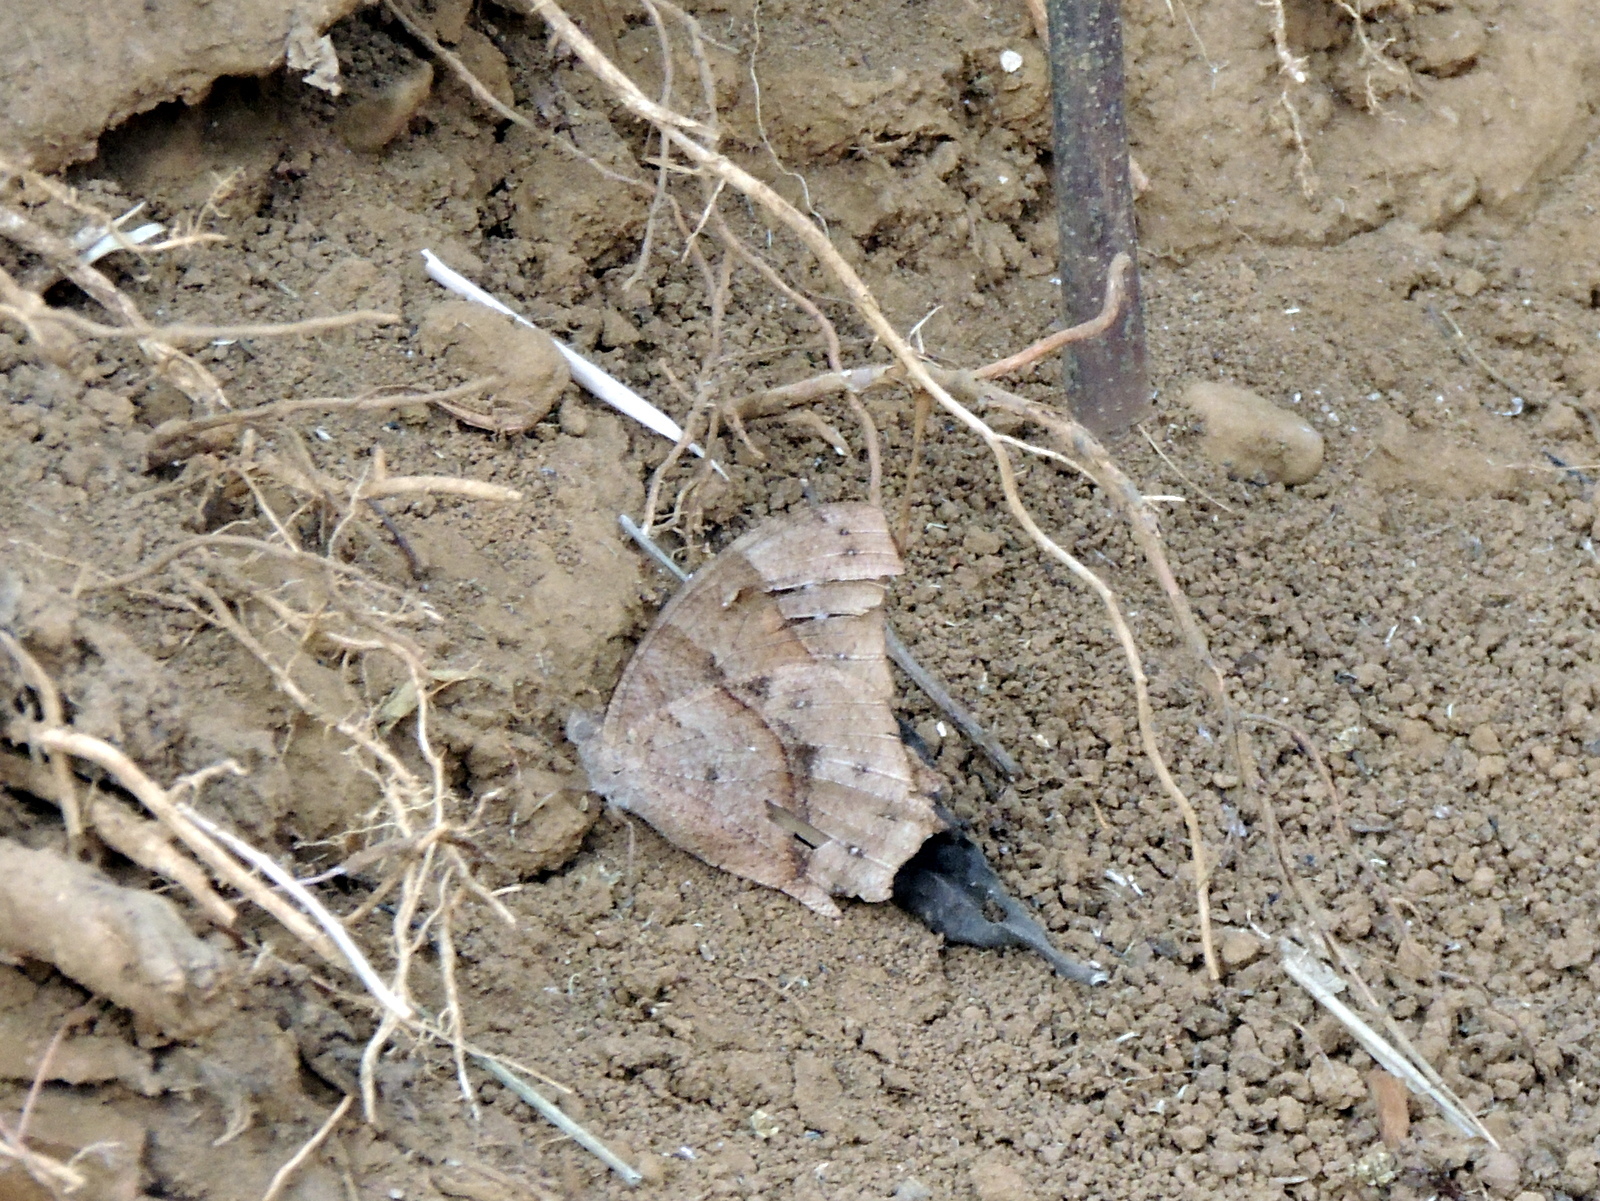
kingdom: Animalia
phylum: Arthropoda
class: Insecta
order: Lepidoptera
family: Nymphalidae
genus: Melanitis
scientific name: Melanitis leda
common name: Twilight brown
